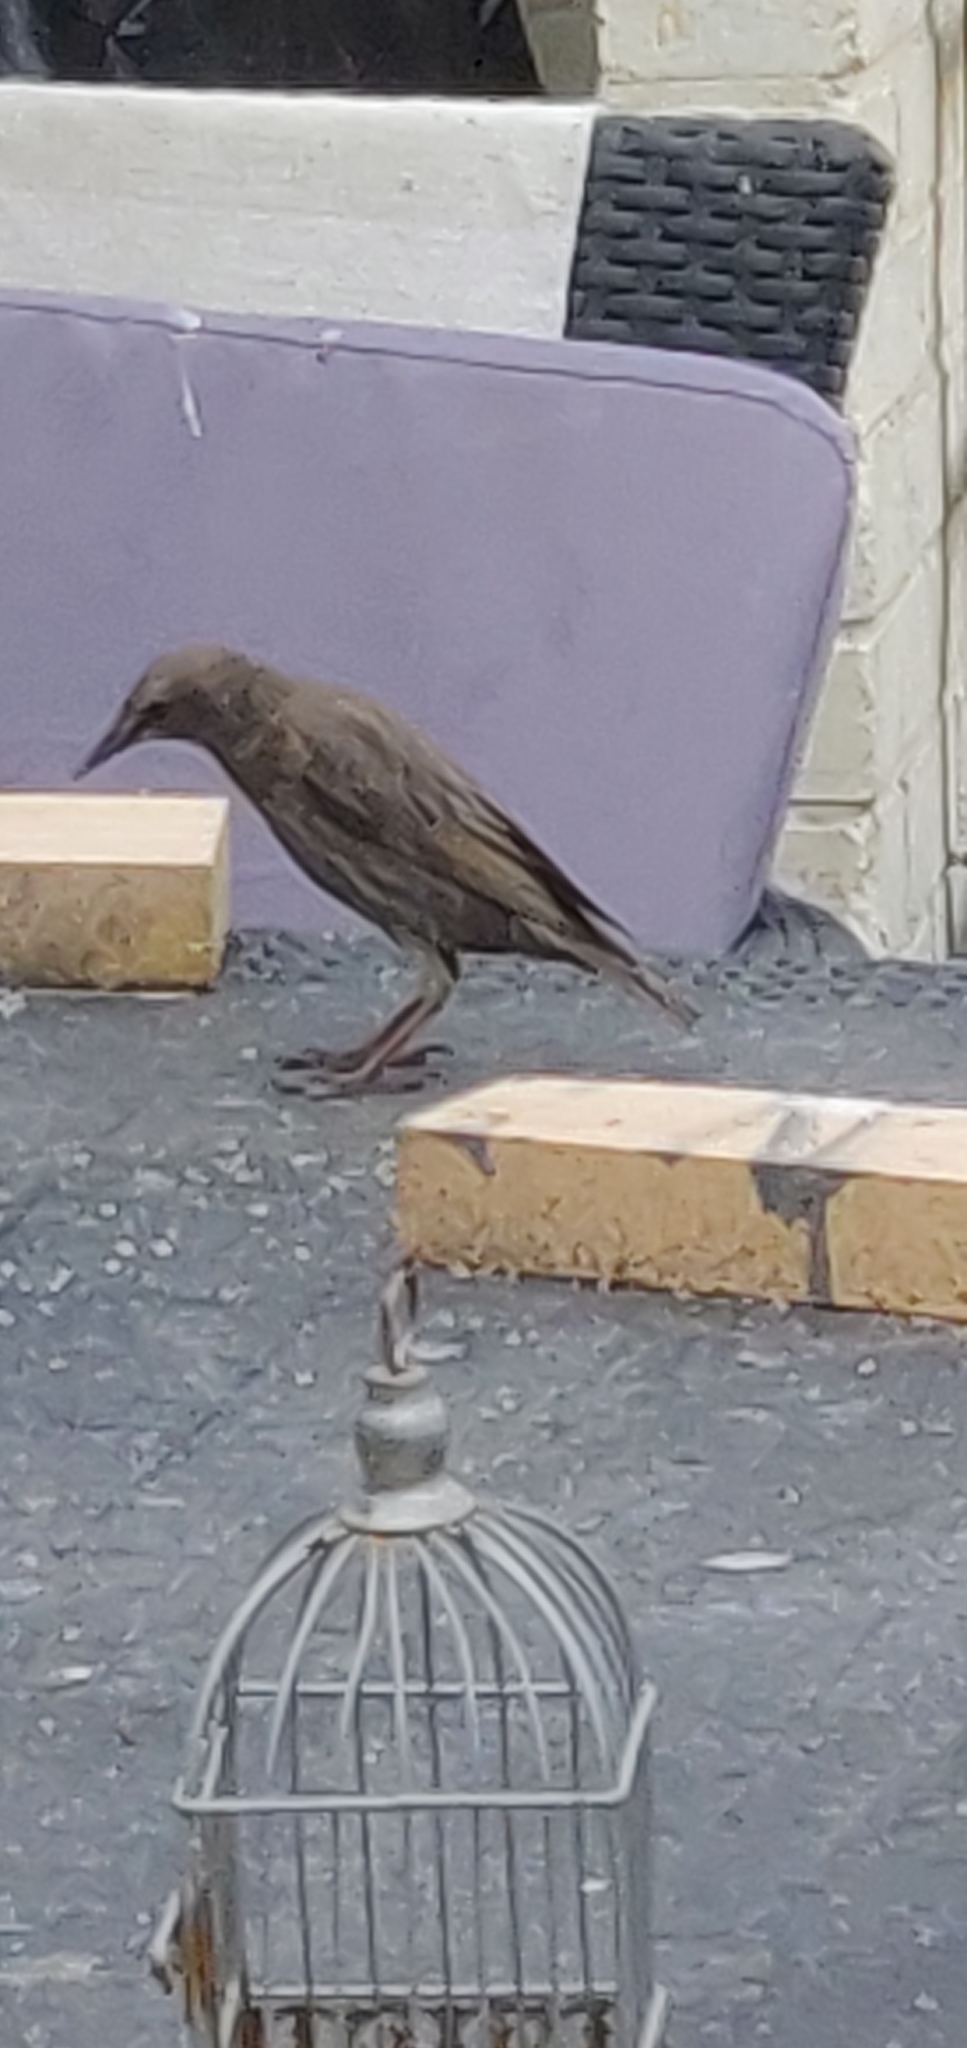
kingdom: Animalia
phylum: Chordata
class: Aves
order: Passeriformes
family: Sturnidae
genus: Sturnus
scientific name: Sturnus vulgaris
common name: Common starling
